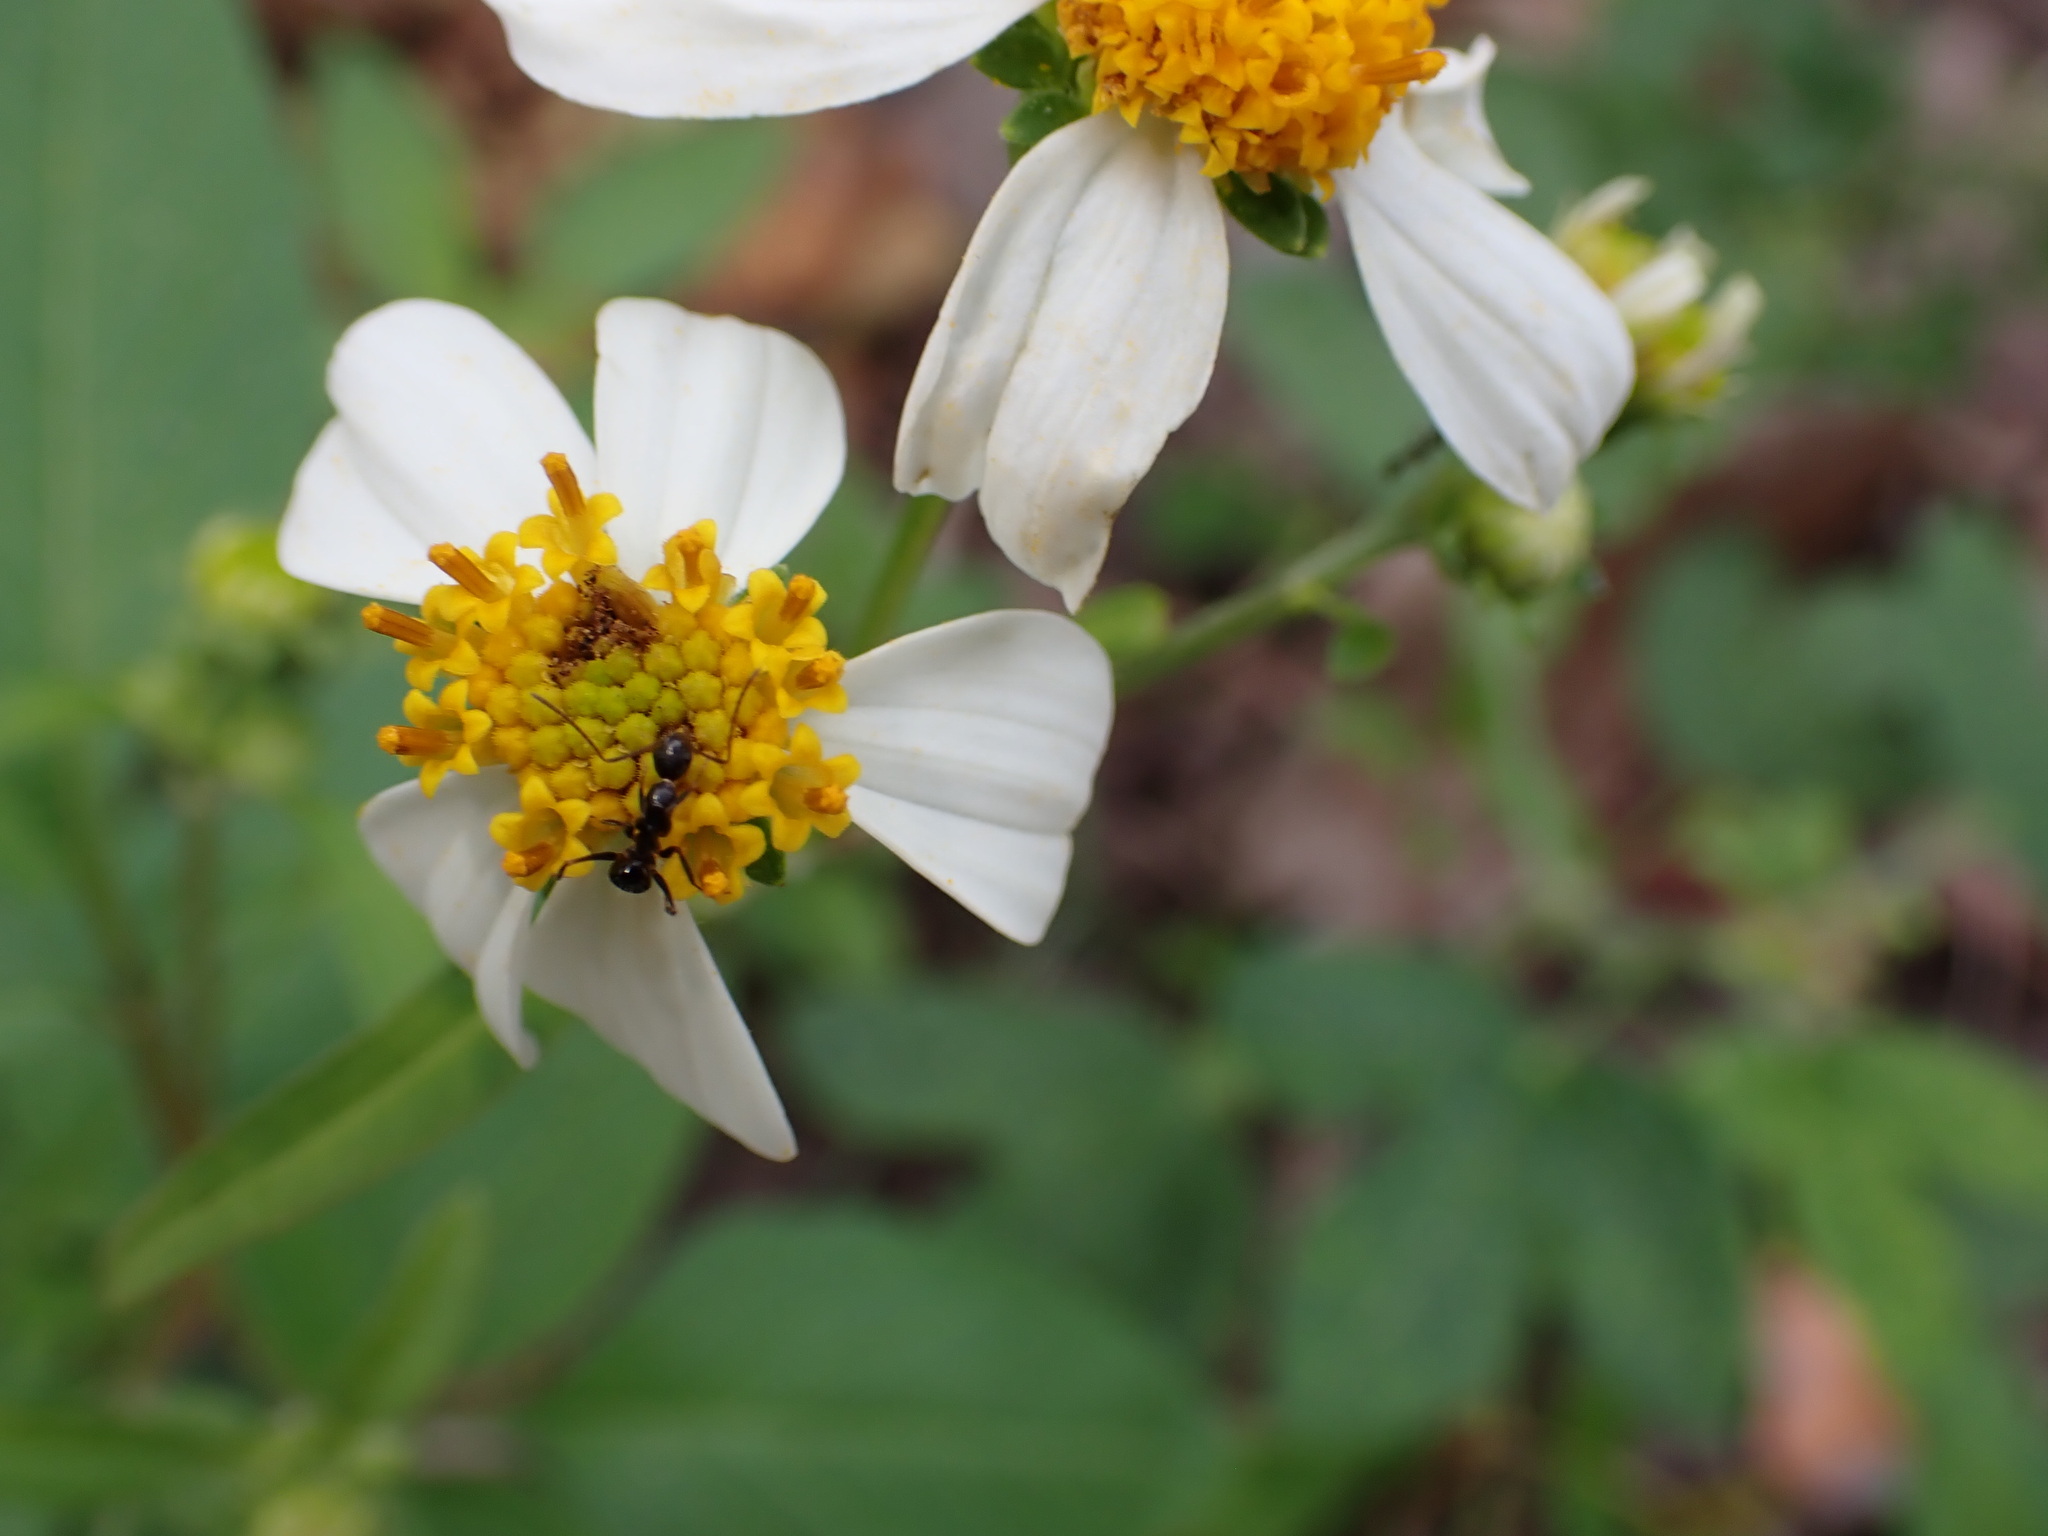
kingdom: Animalia
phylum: Arthropoda
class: Insecta
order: Hymenoptera
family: Formicidae
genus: Camponotus
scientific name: Camponotus sexguttatus
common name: Neotropical carpenter ant
